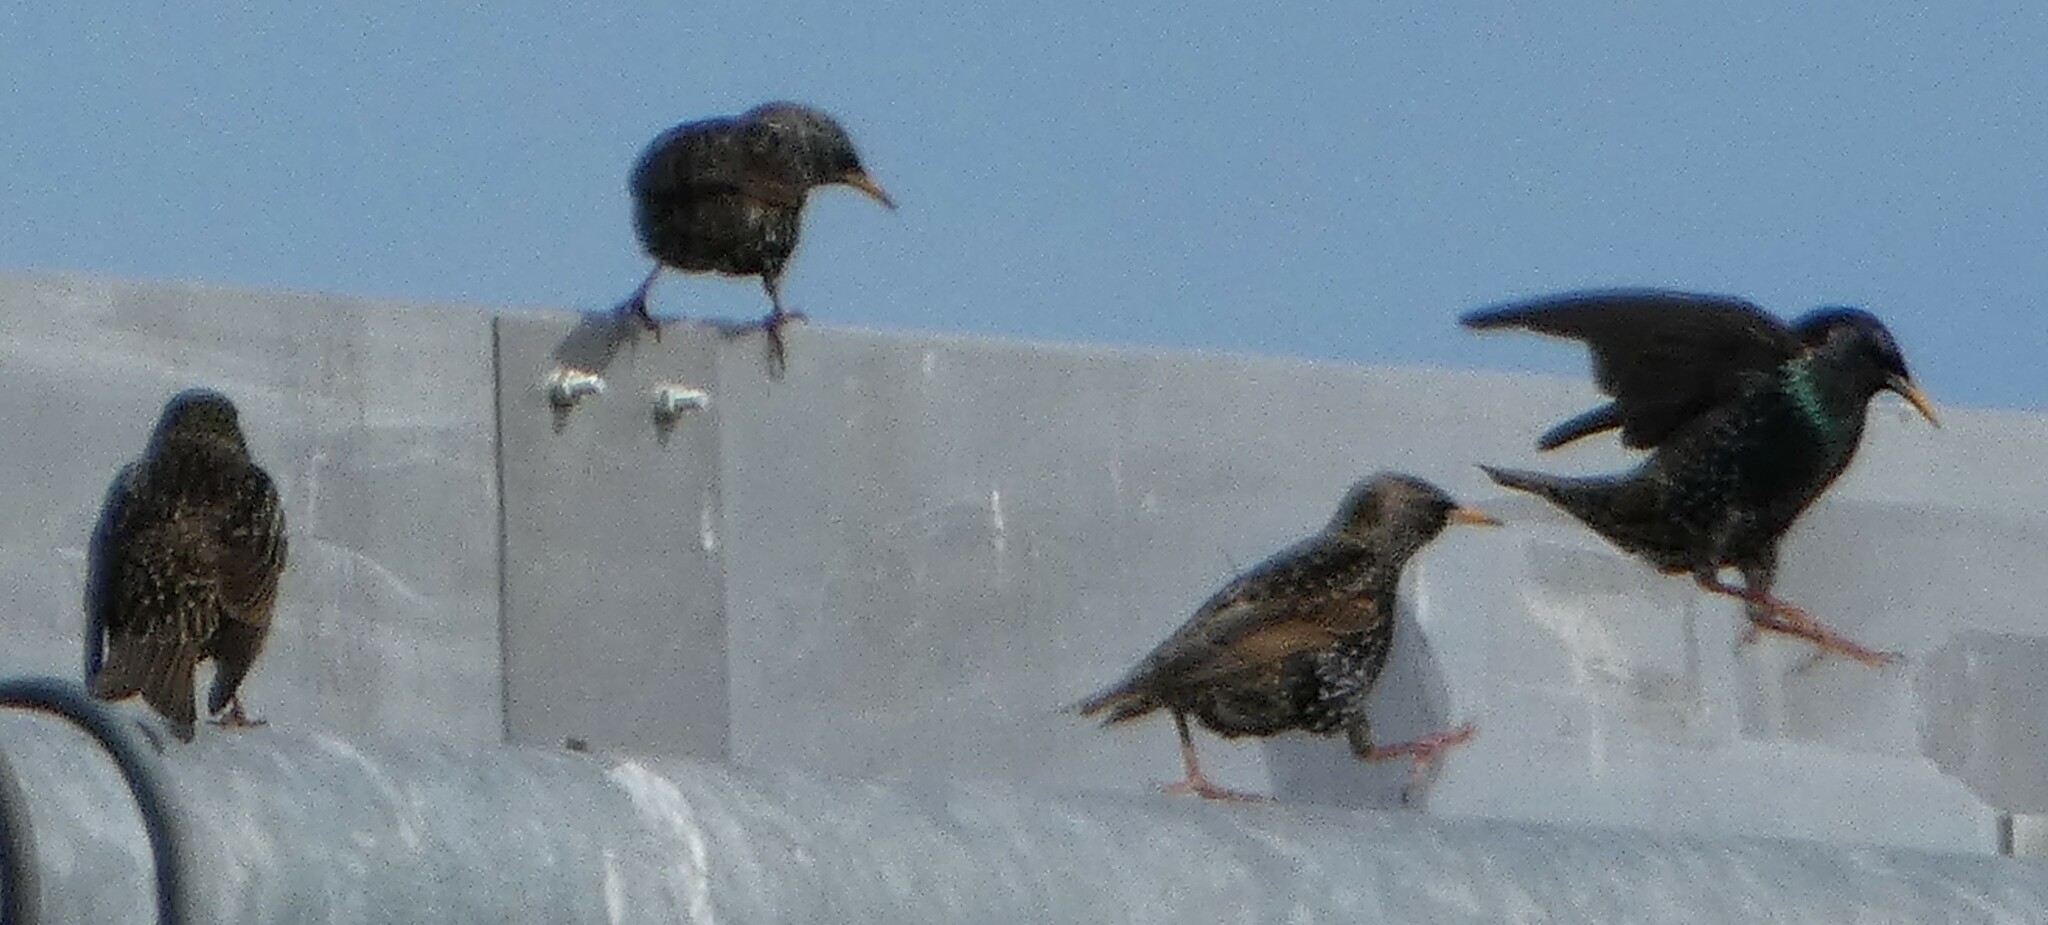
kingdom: Animalia
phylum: Chordata
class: Aves
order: Passeriformes
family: Sturnidae
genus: Sturnus
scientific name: Sturnus vulgaris
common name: Common starling
